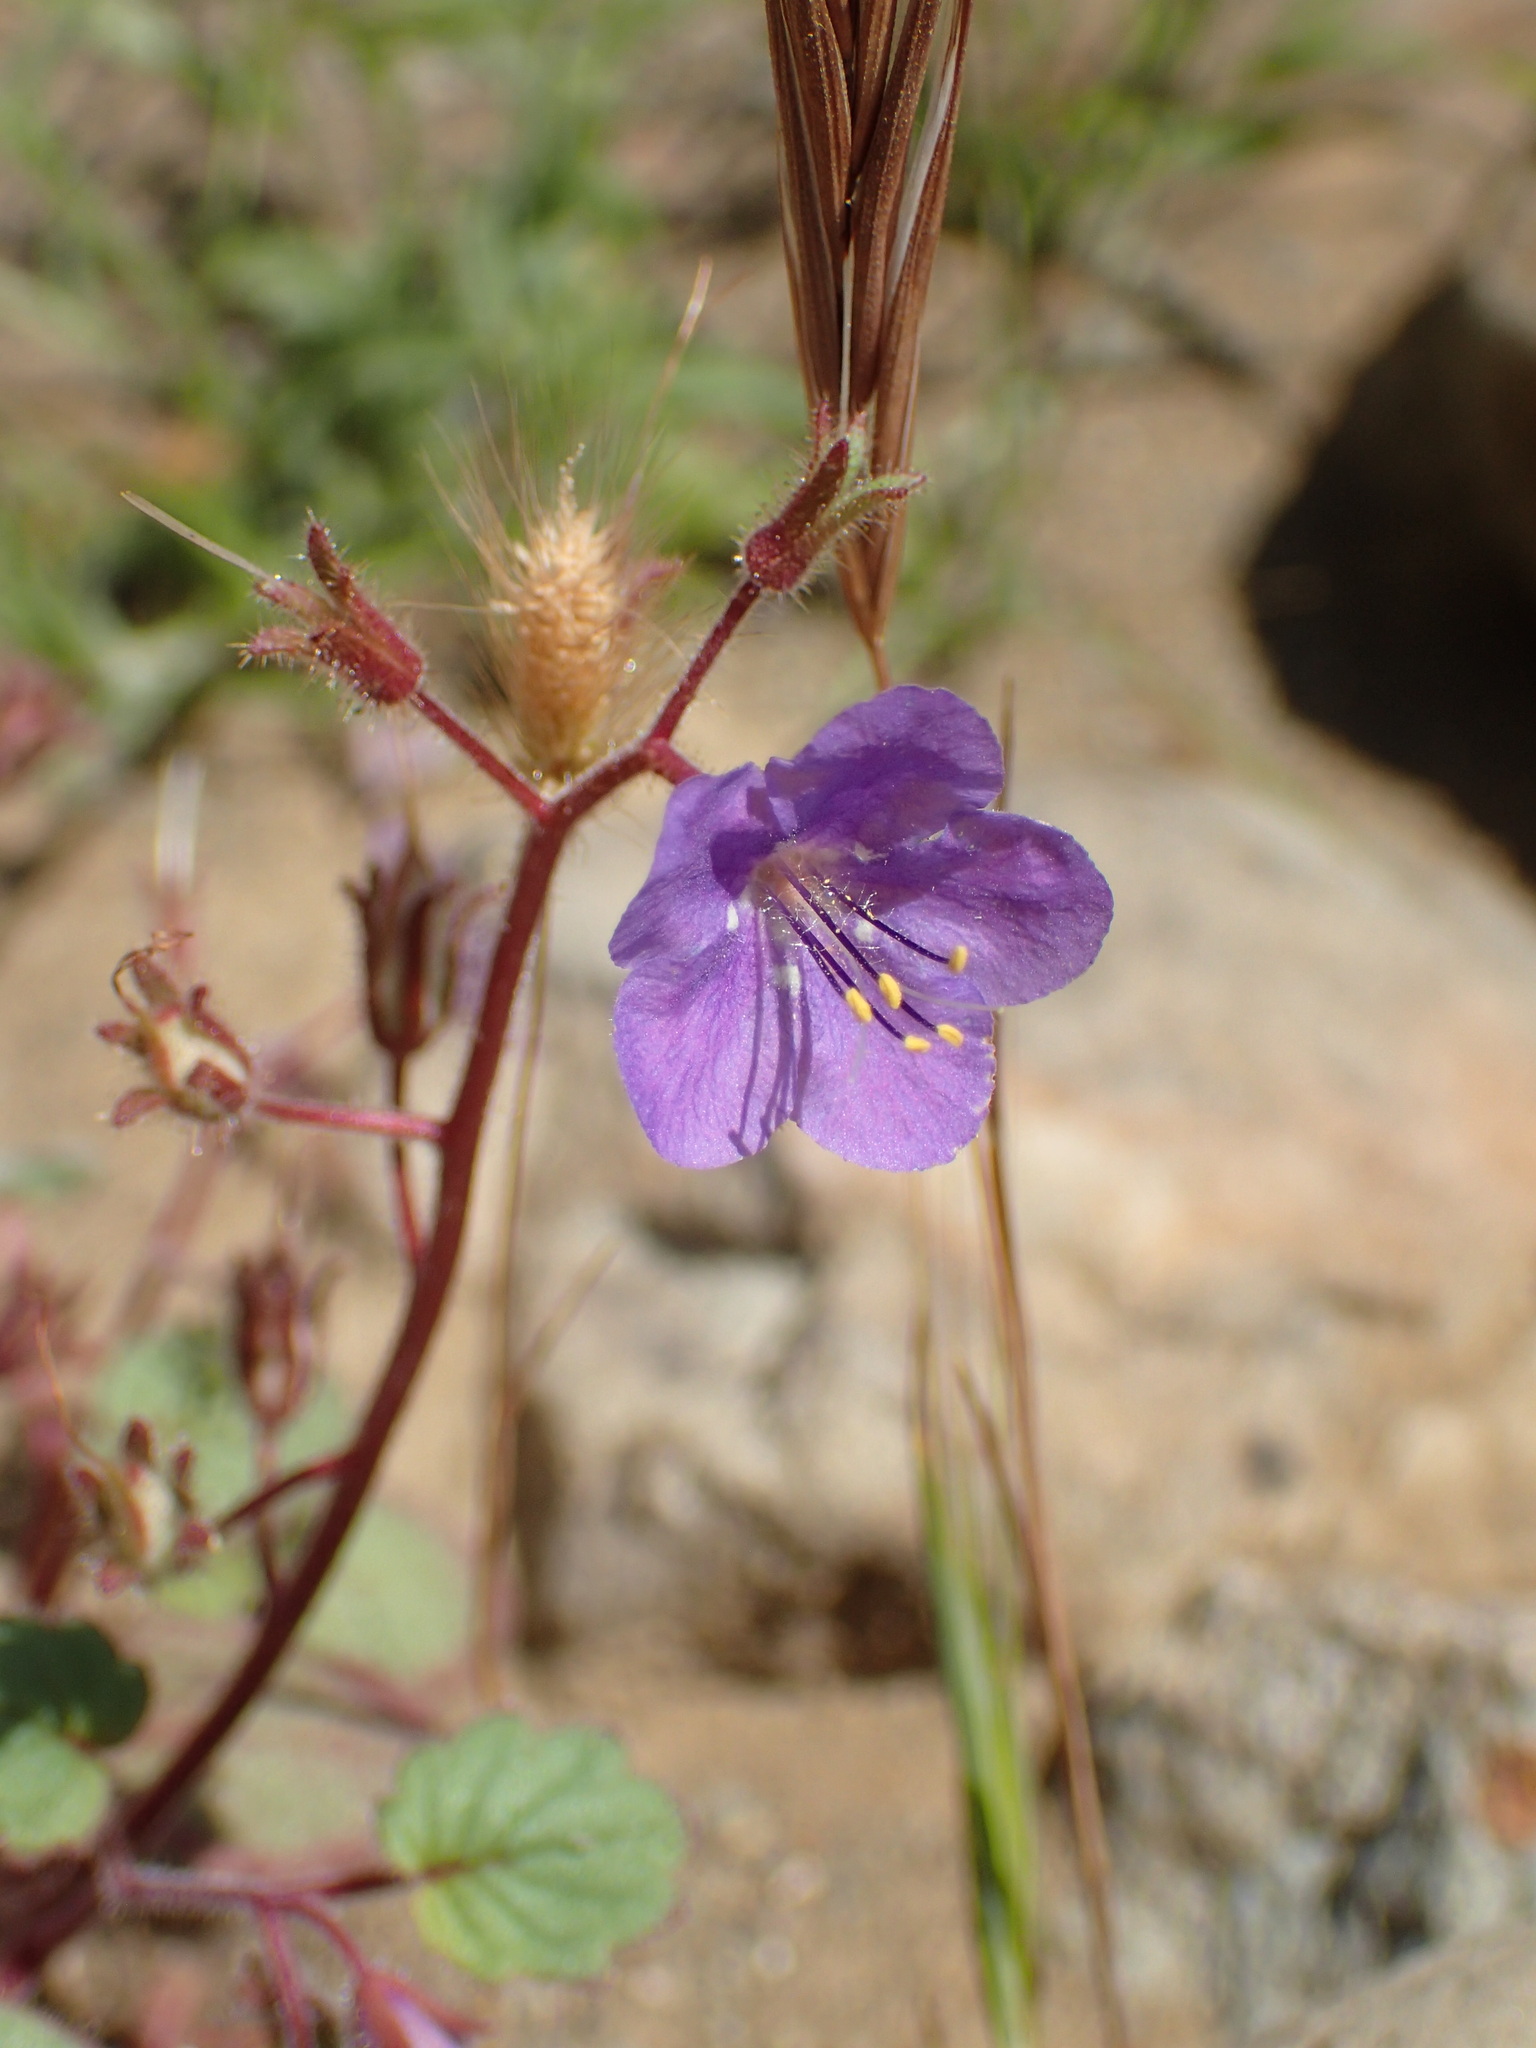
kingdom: Plantae
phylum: Tracheophyta
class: Magnoliopsida
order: Boraginales
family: Hydrophyllaceae
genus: Phacelia
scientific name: Phacelia longipes
